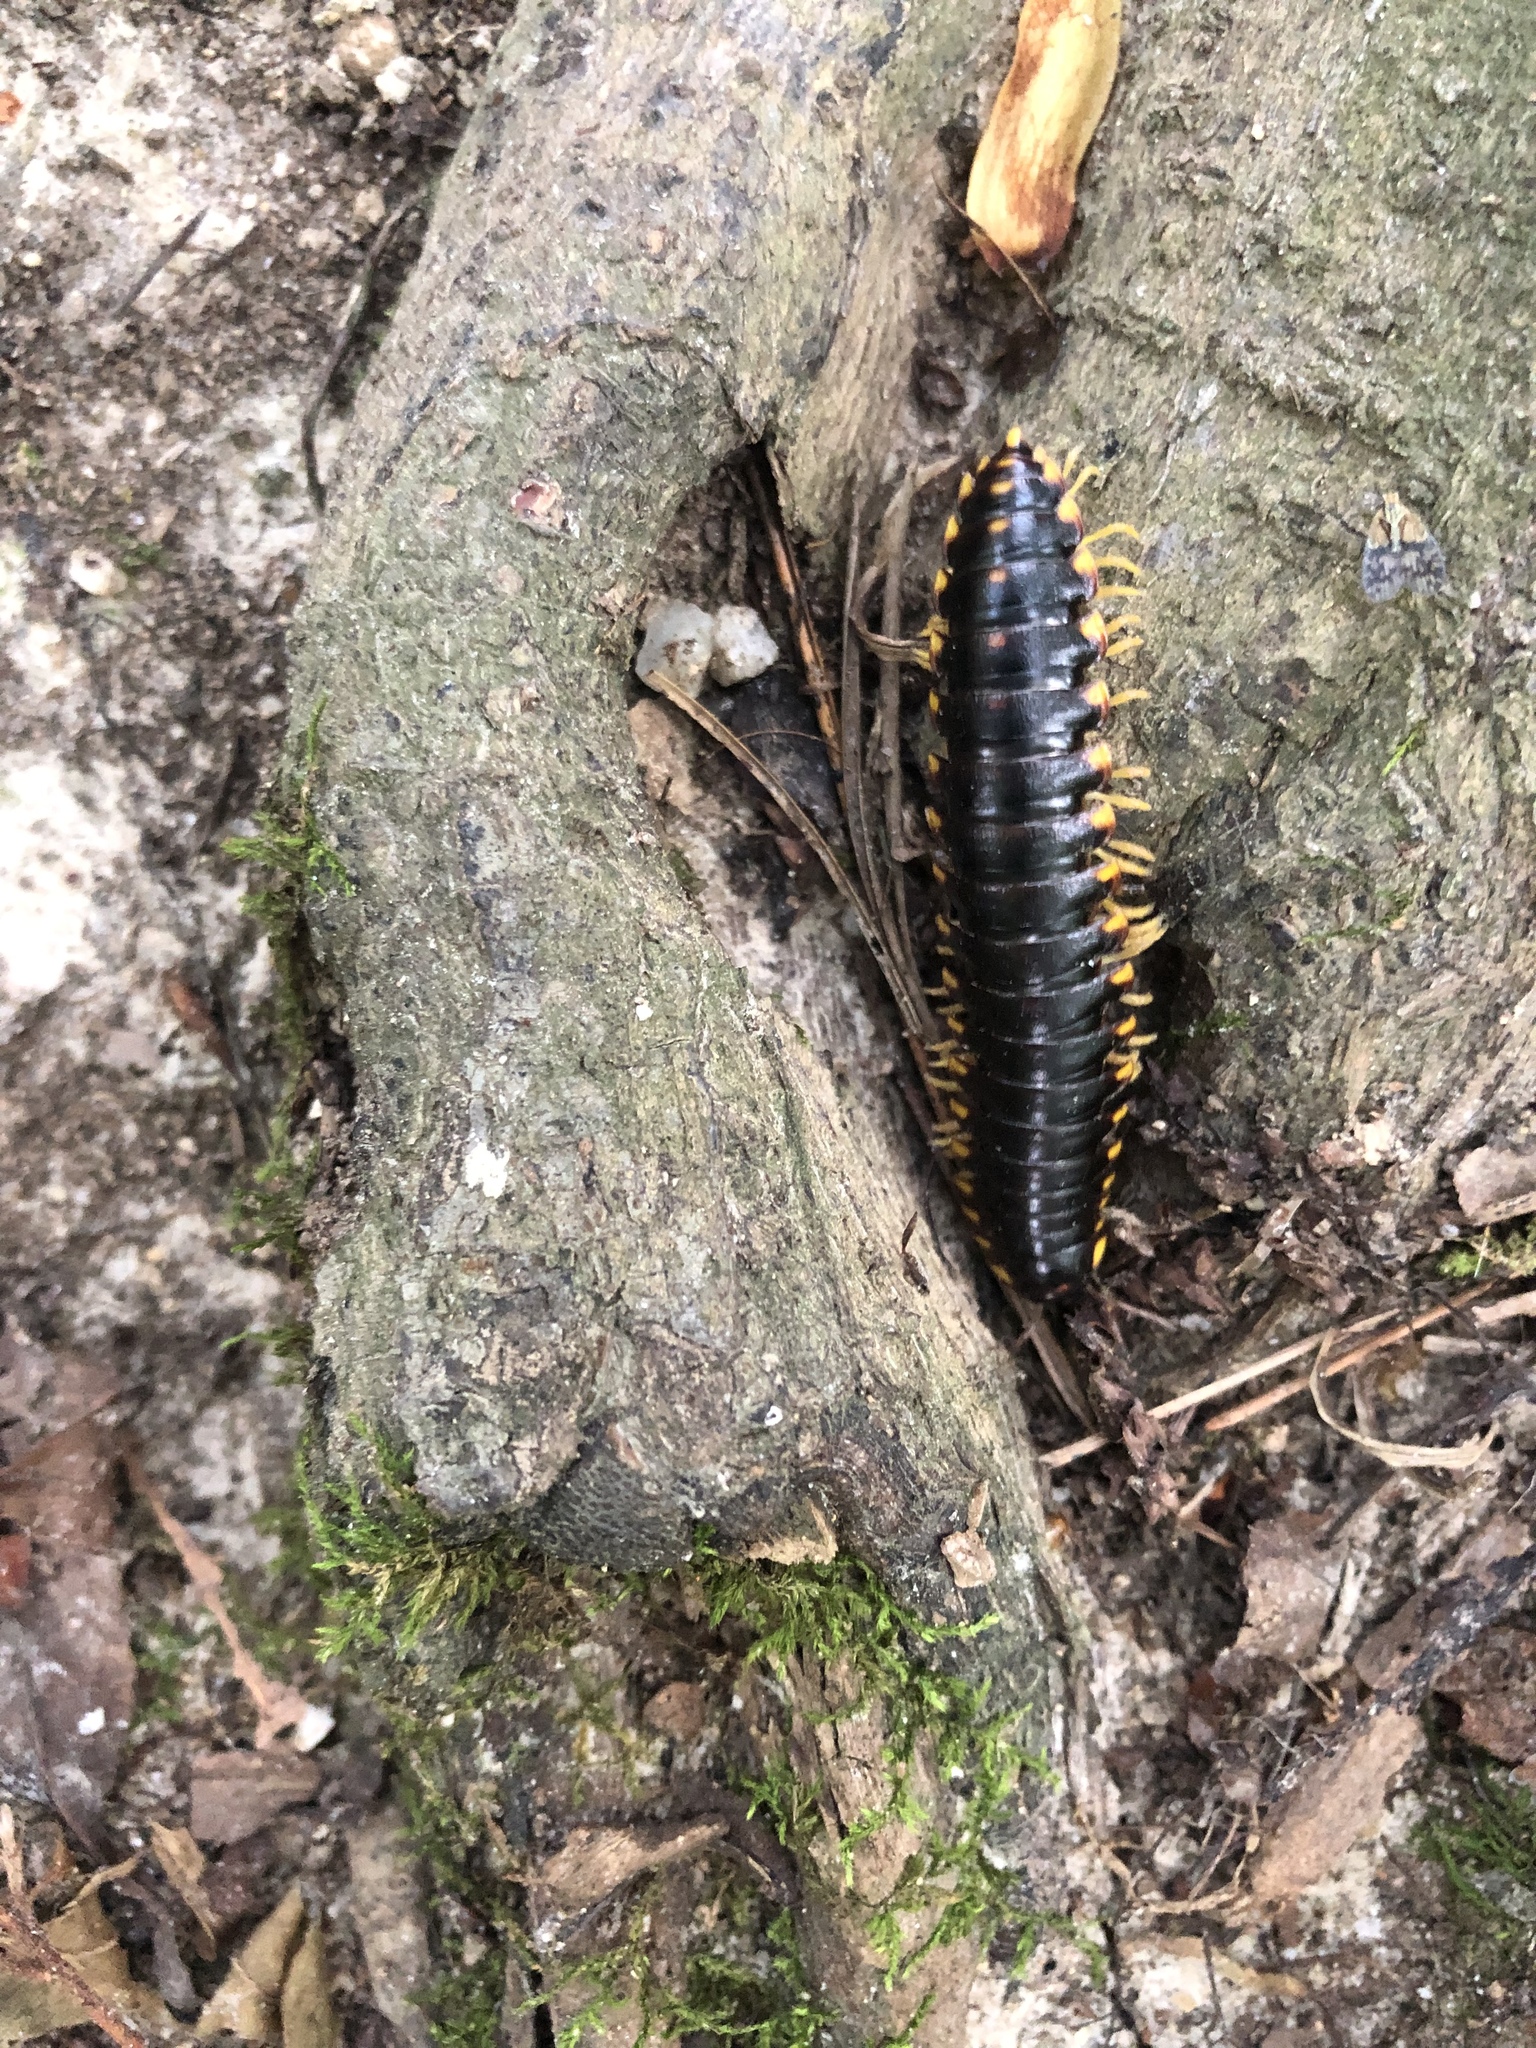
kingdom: Animalia
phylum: Arthropoda
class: Diplopoda
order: Polydesmida
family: Xystodesmidae
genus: Apheloria
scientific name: Apheloria tigana
